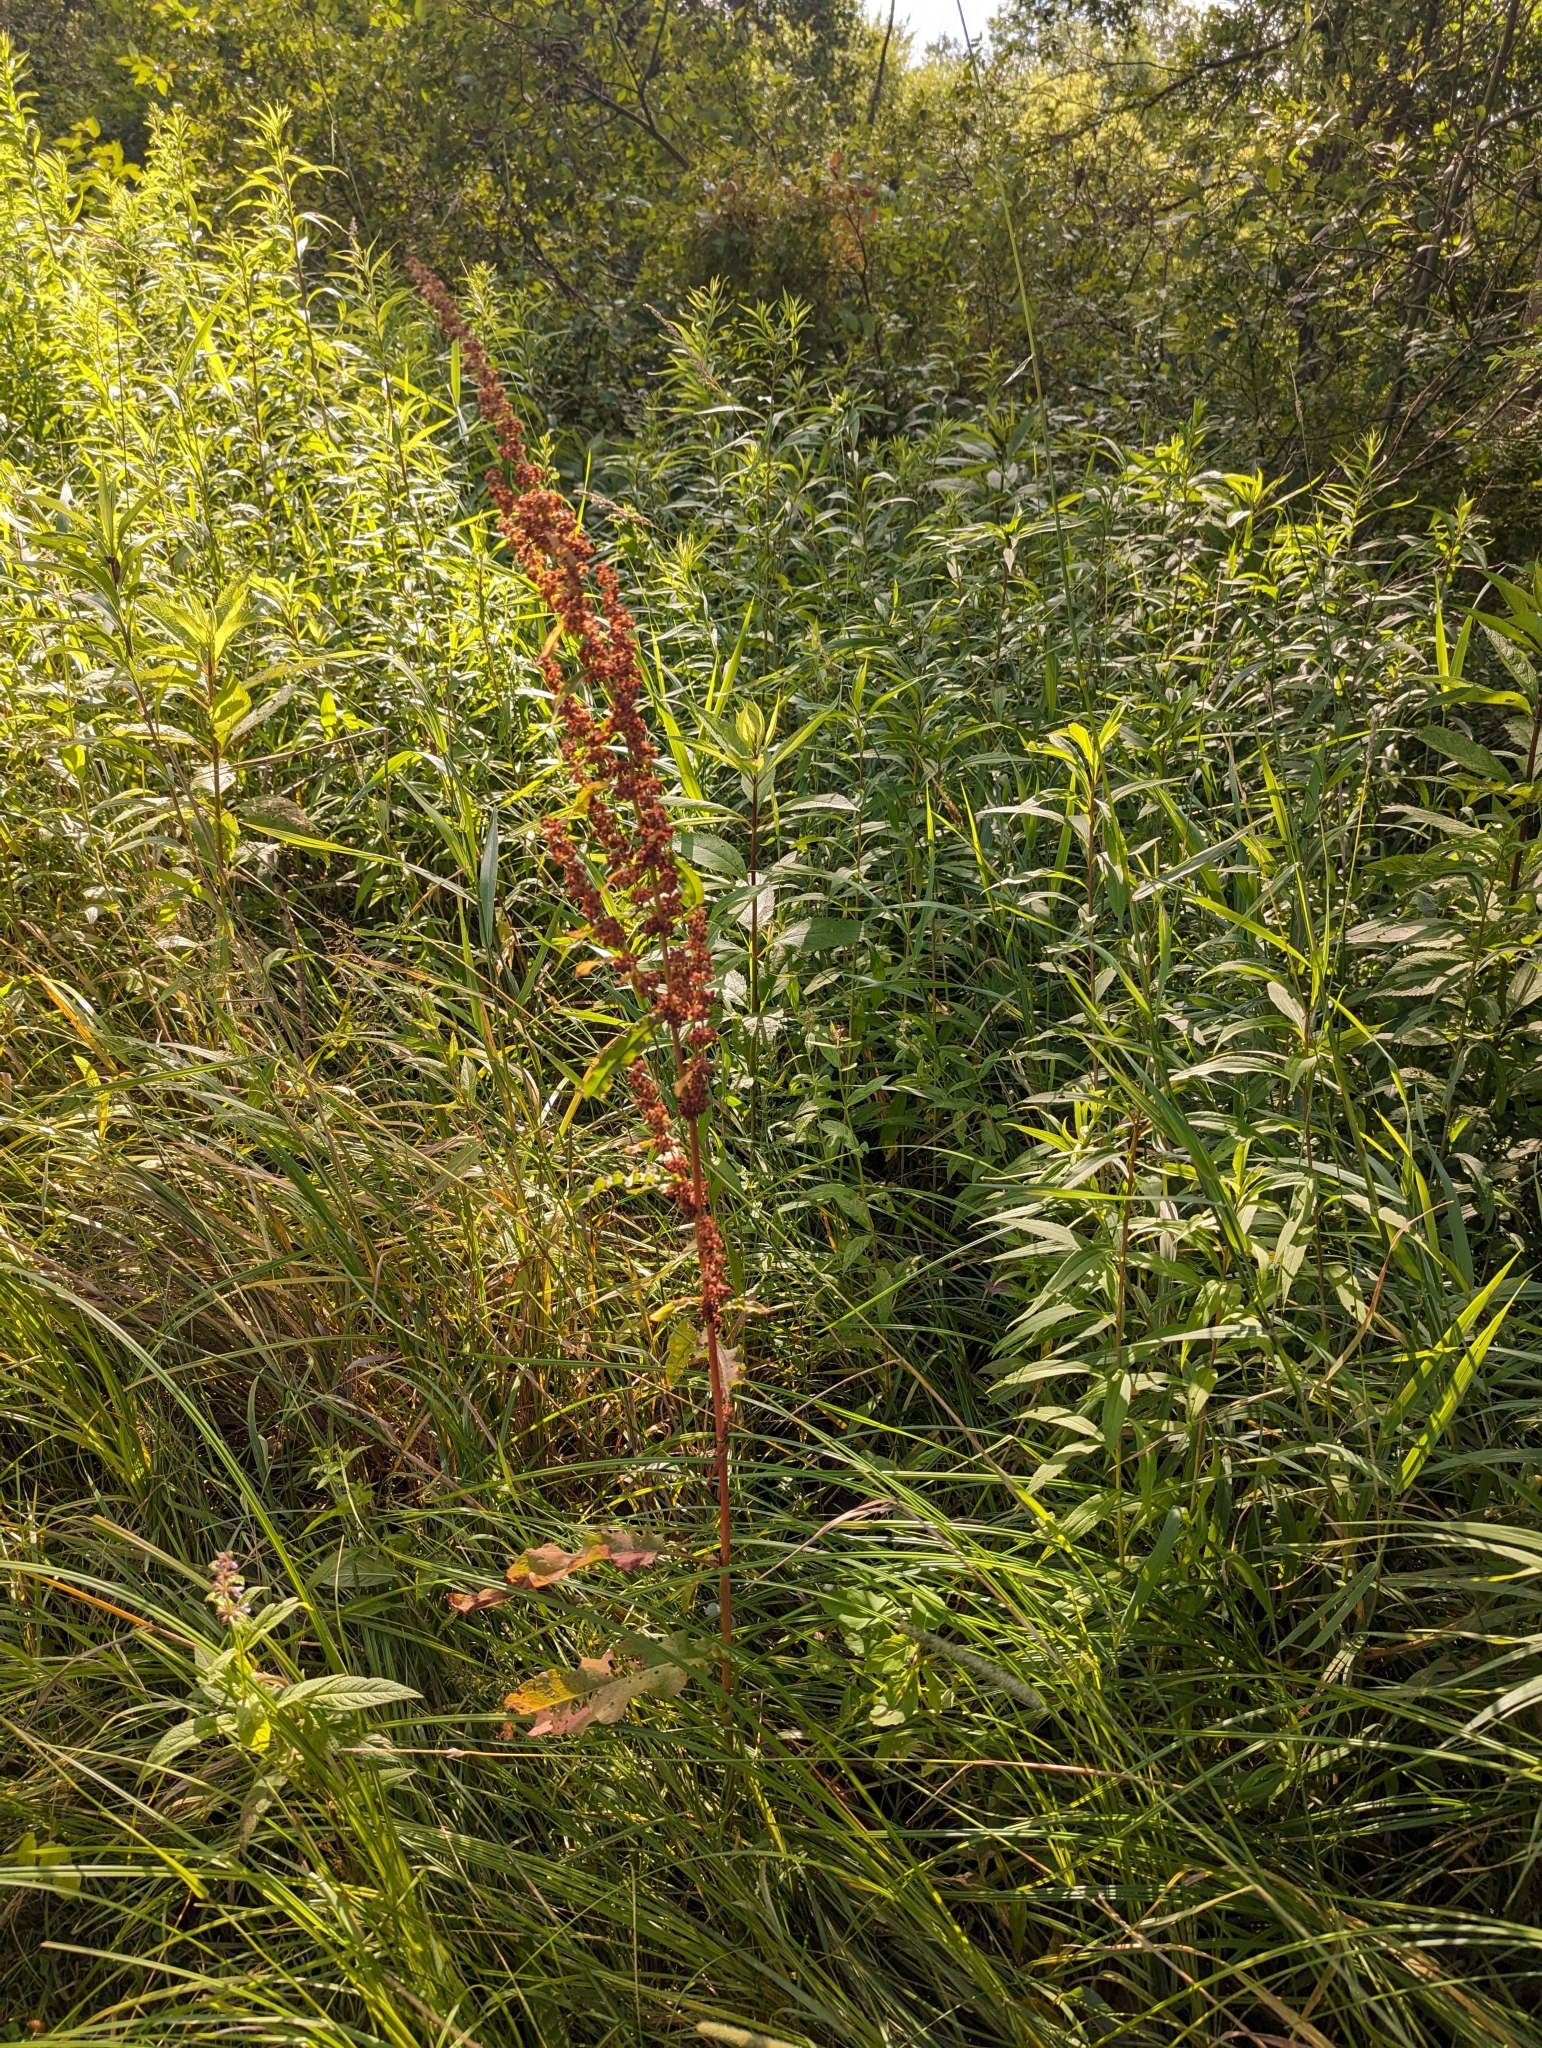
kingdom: Plantae
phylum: Tracheophyta
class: Magnoliopsida
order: Caryophyllales
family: Polygonaceae
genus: Rumex
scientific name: Rumex crispus
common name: Curled dock
